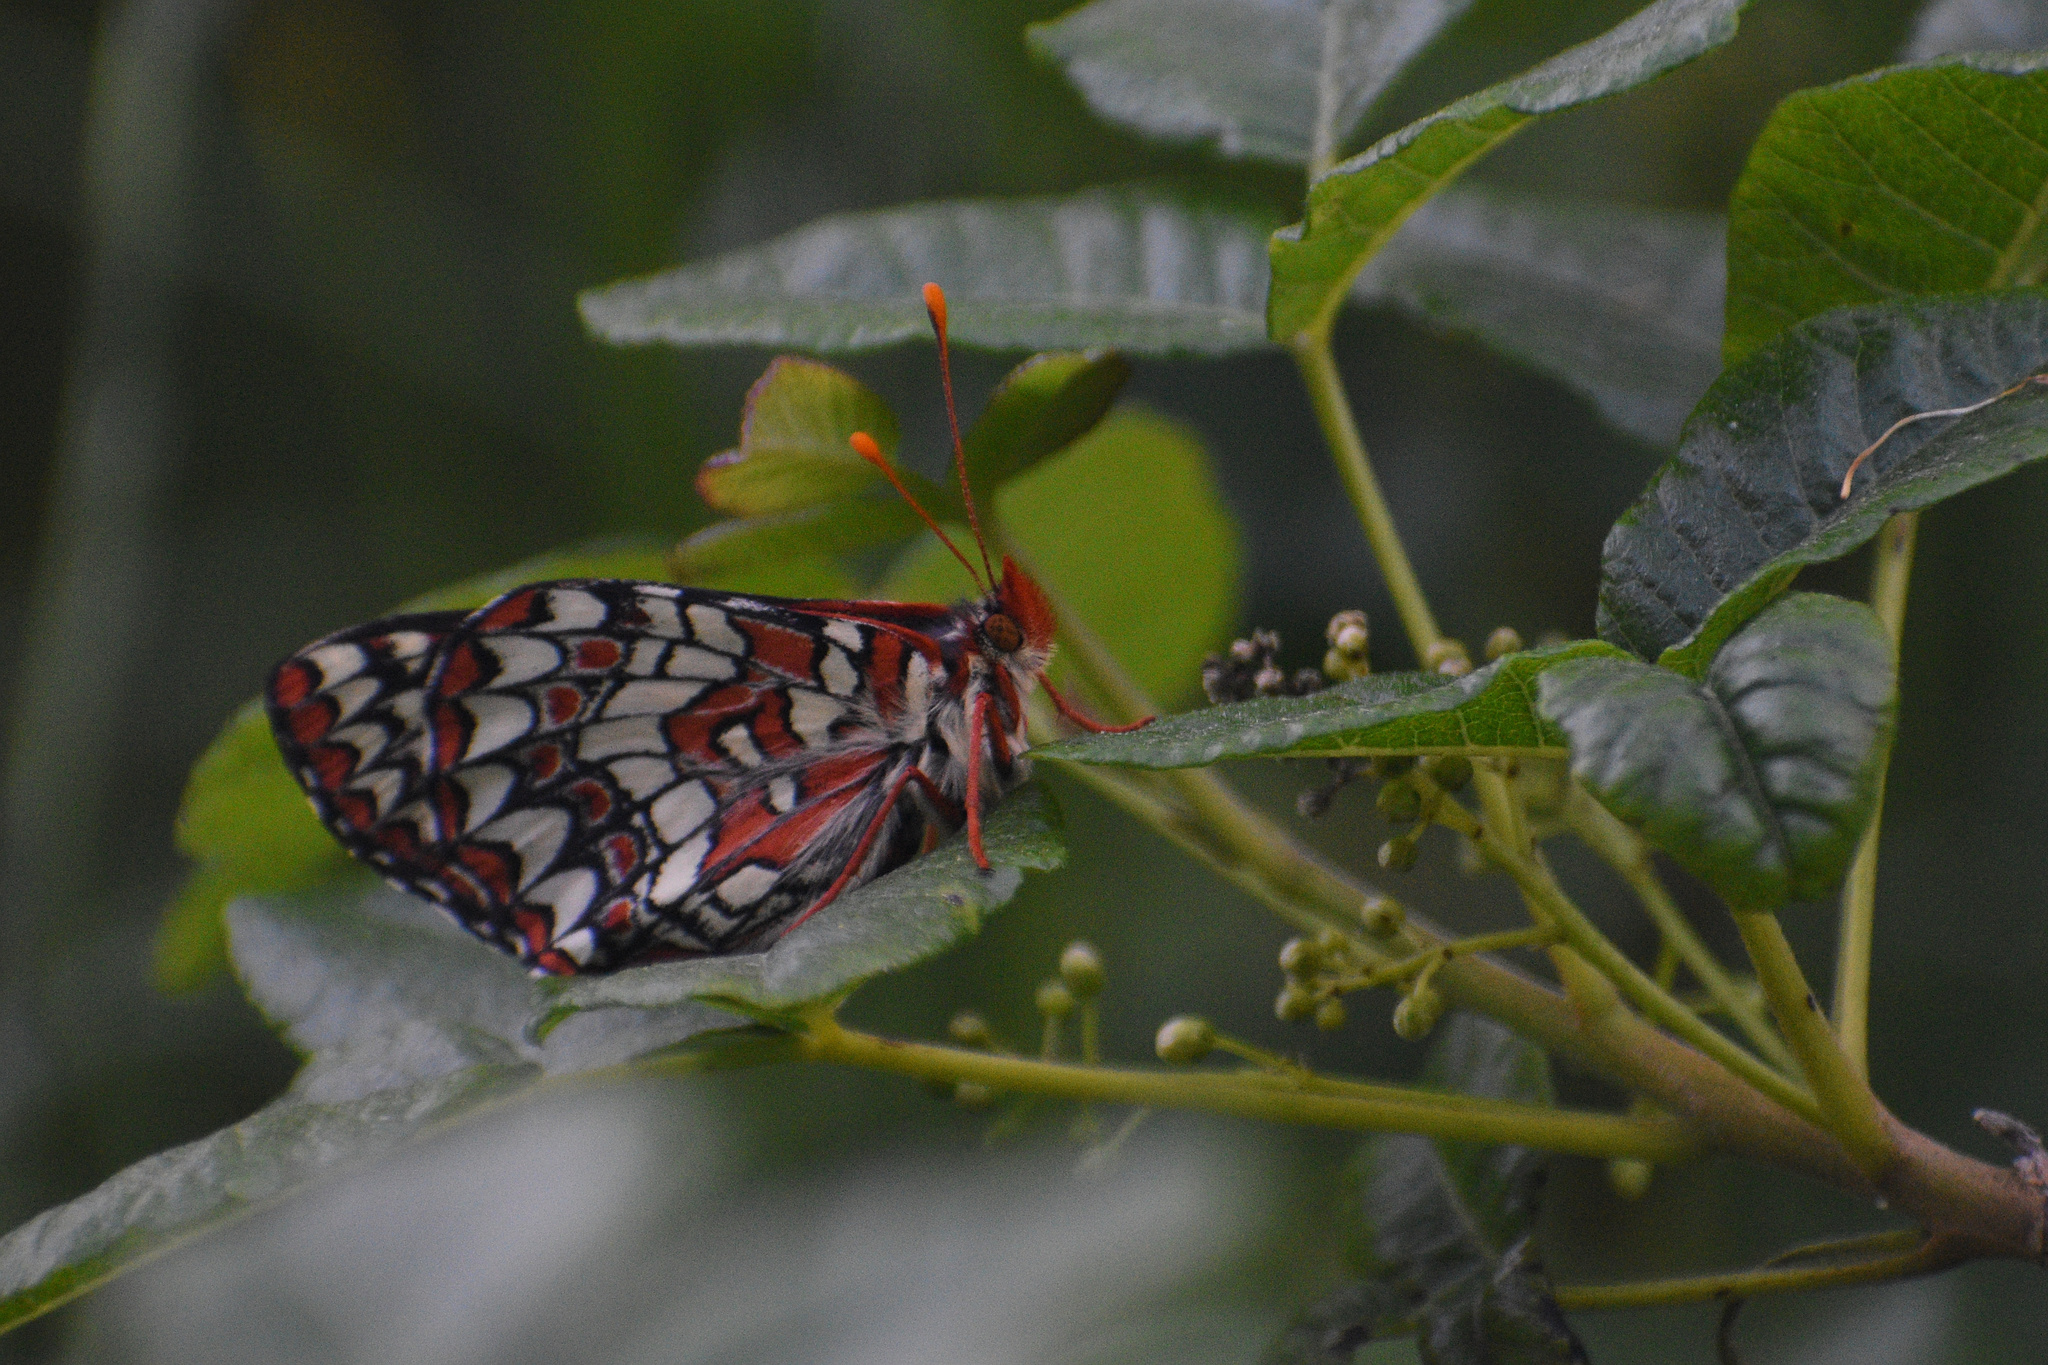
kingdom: Animalia
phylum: Arthropoda
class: Insecta
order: Lepidoptera
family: Nymphalidae
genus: Occidryas
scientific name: Occidryas chalcedona
